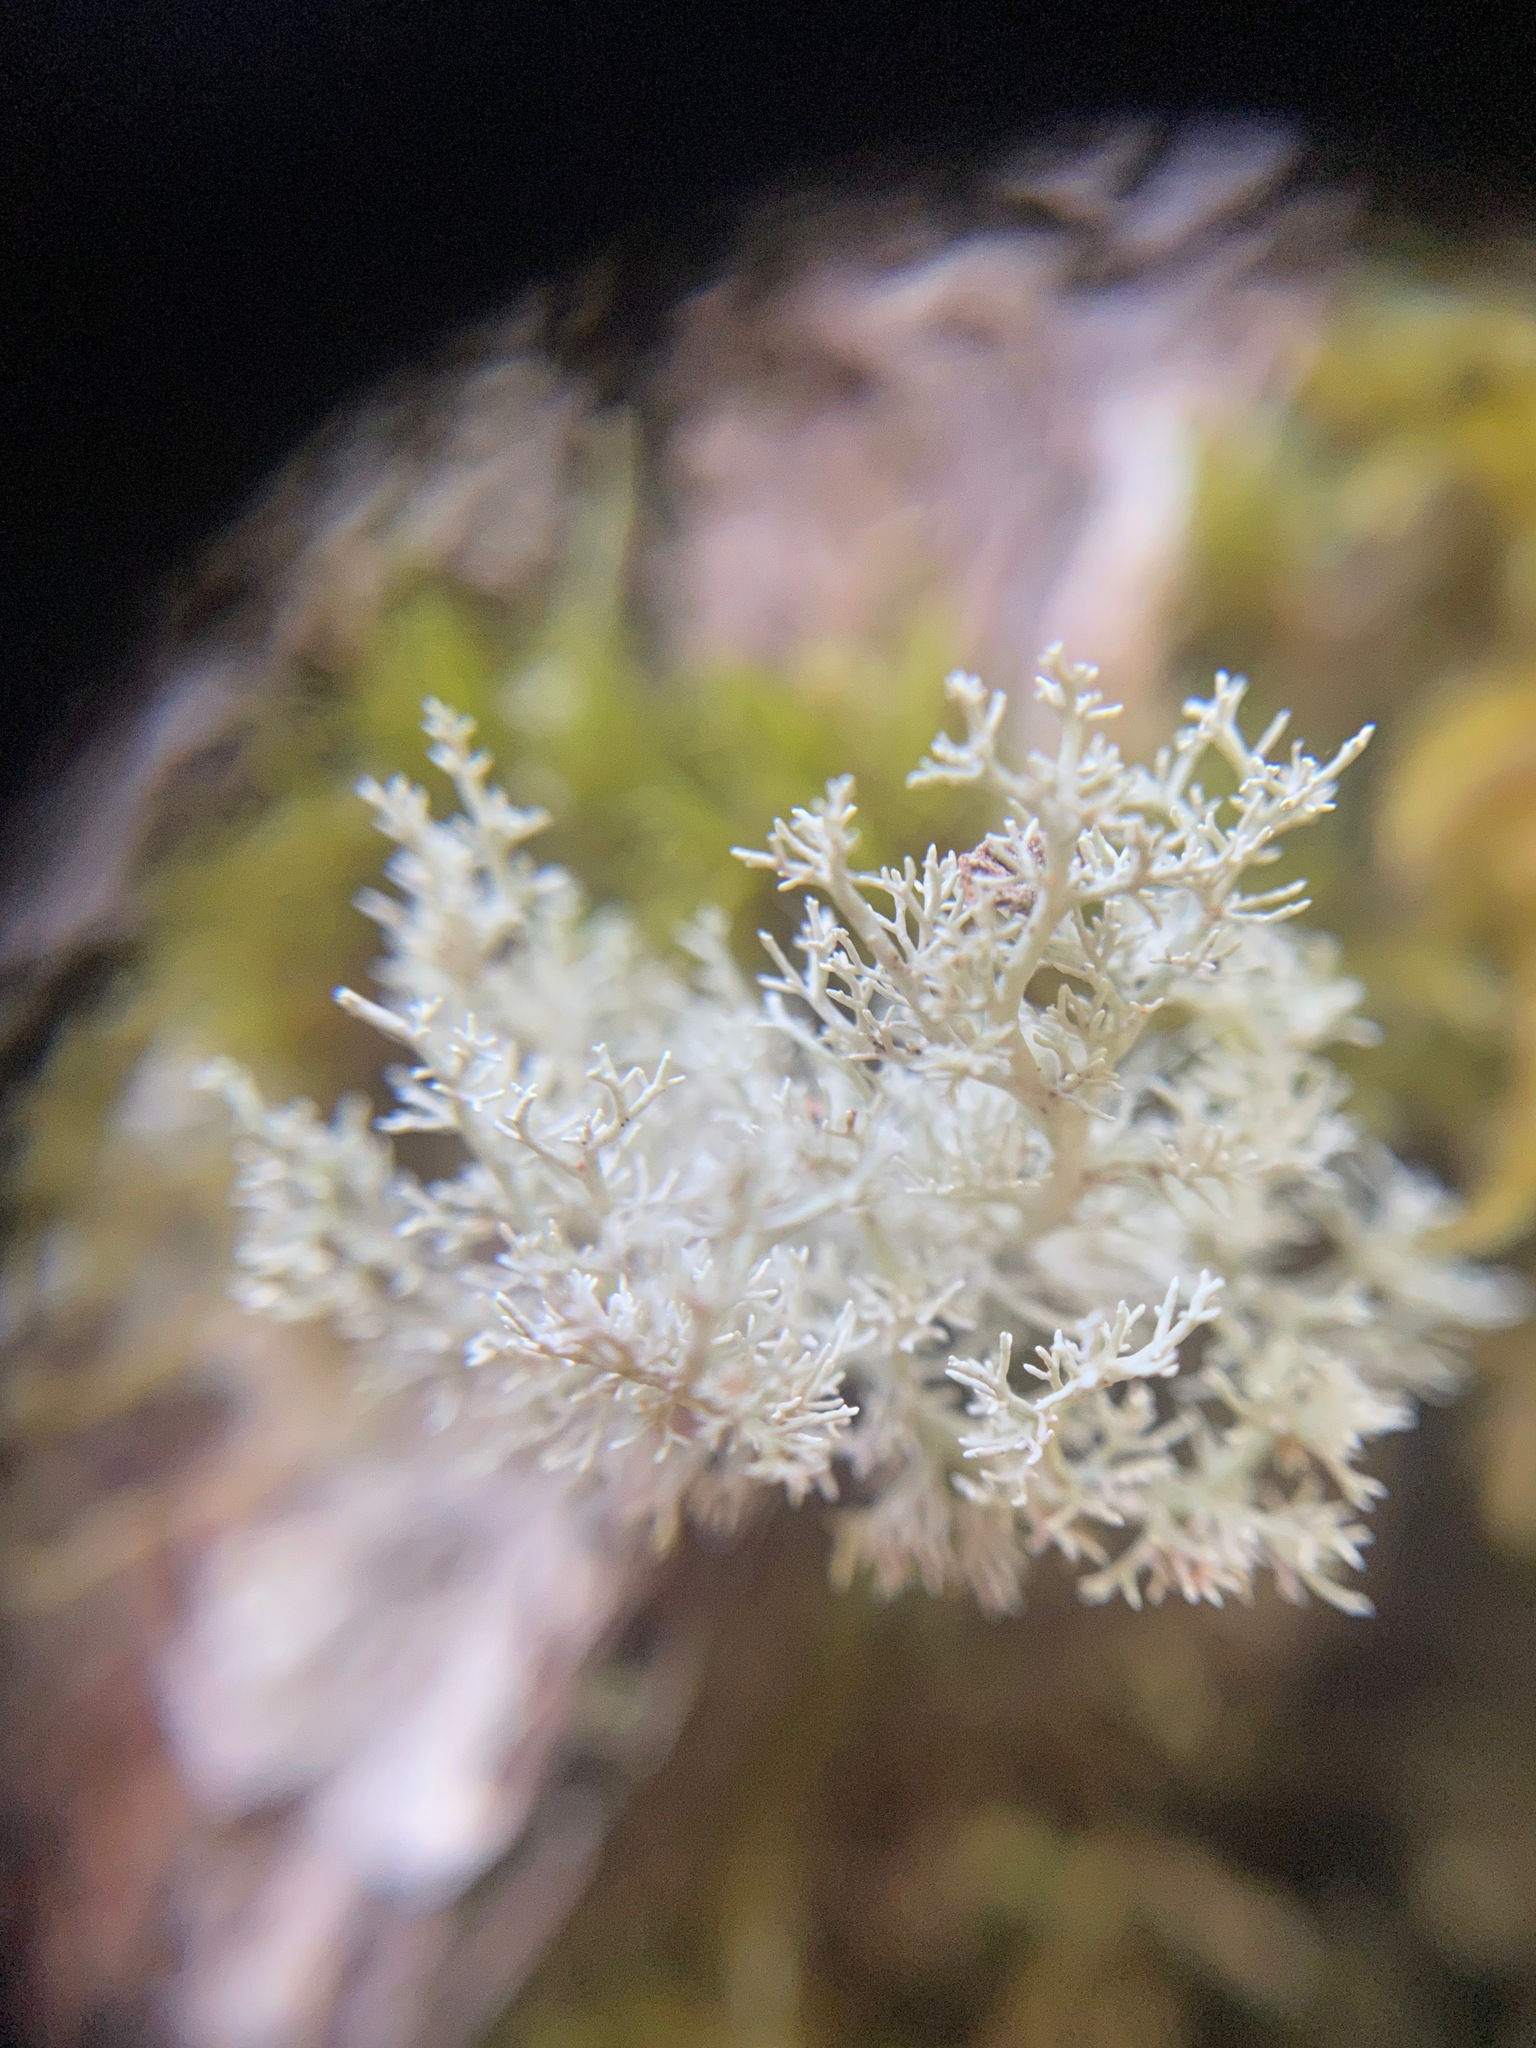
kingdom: Fungi
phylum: Ascomycota
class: Lecanoromycetes
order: Lecanorales
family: Sphaerophoraceae
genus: Sphaerophorus
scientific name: Sphaerophorus globosus
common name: Globe ball lichen
